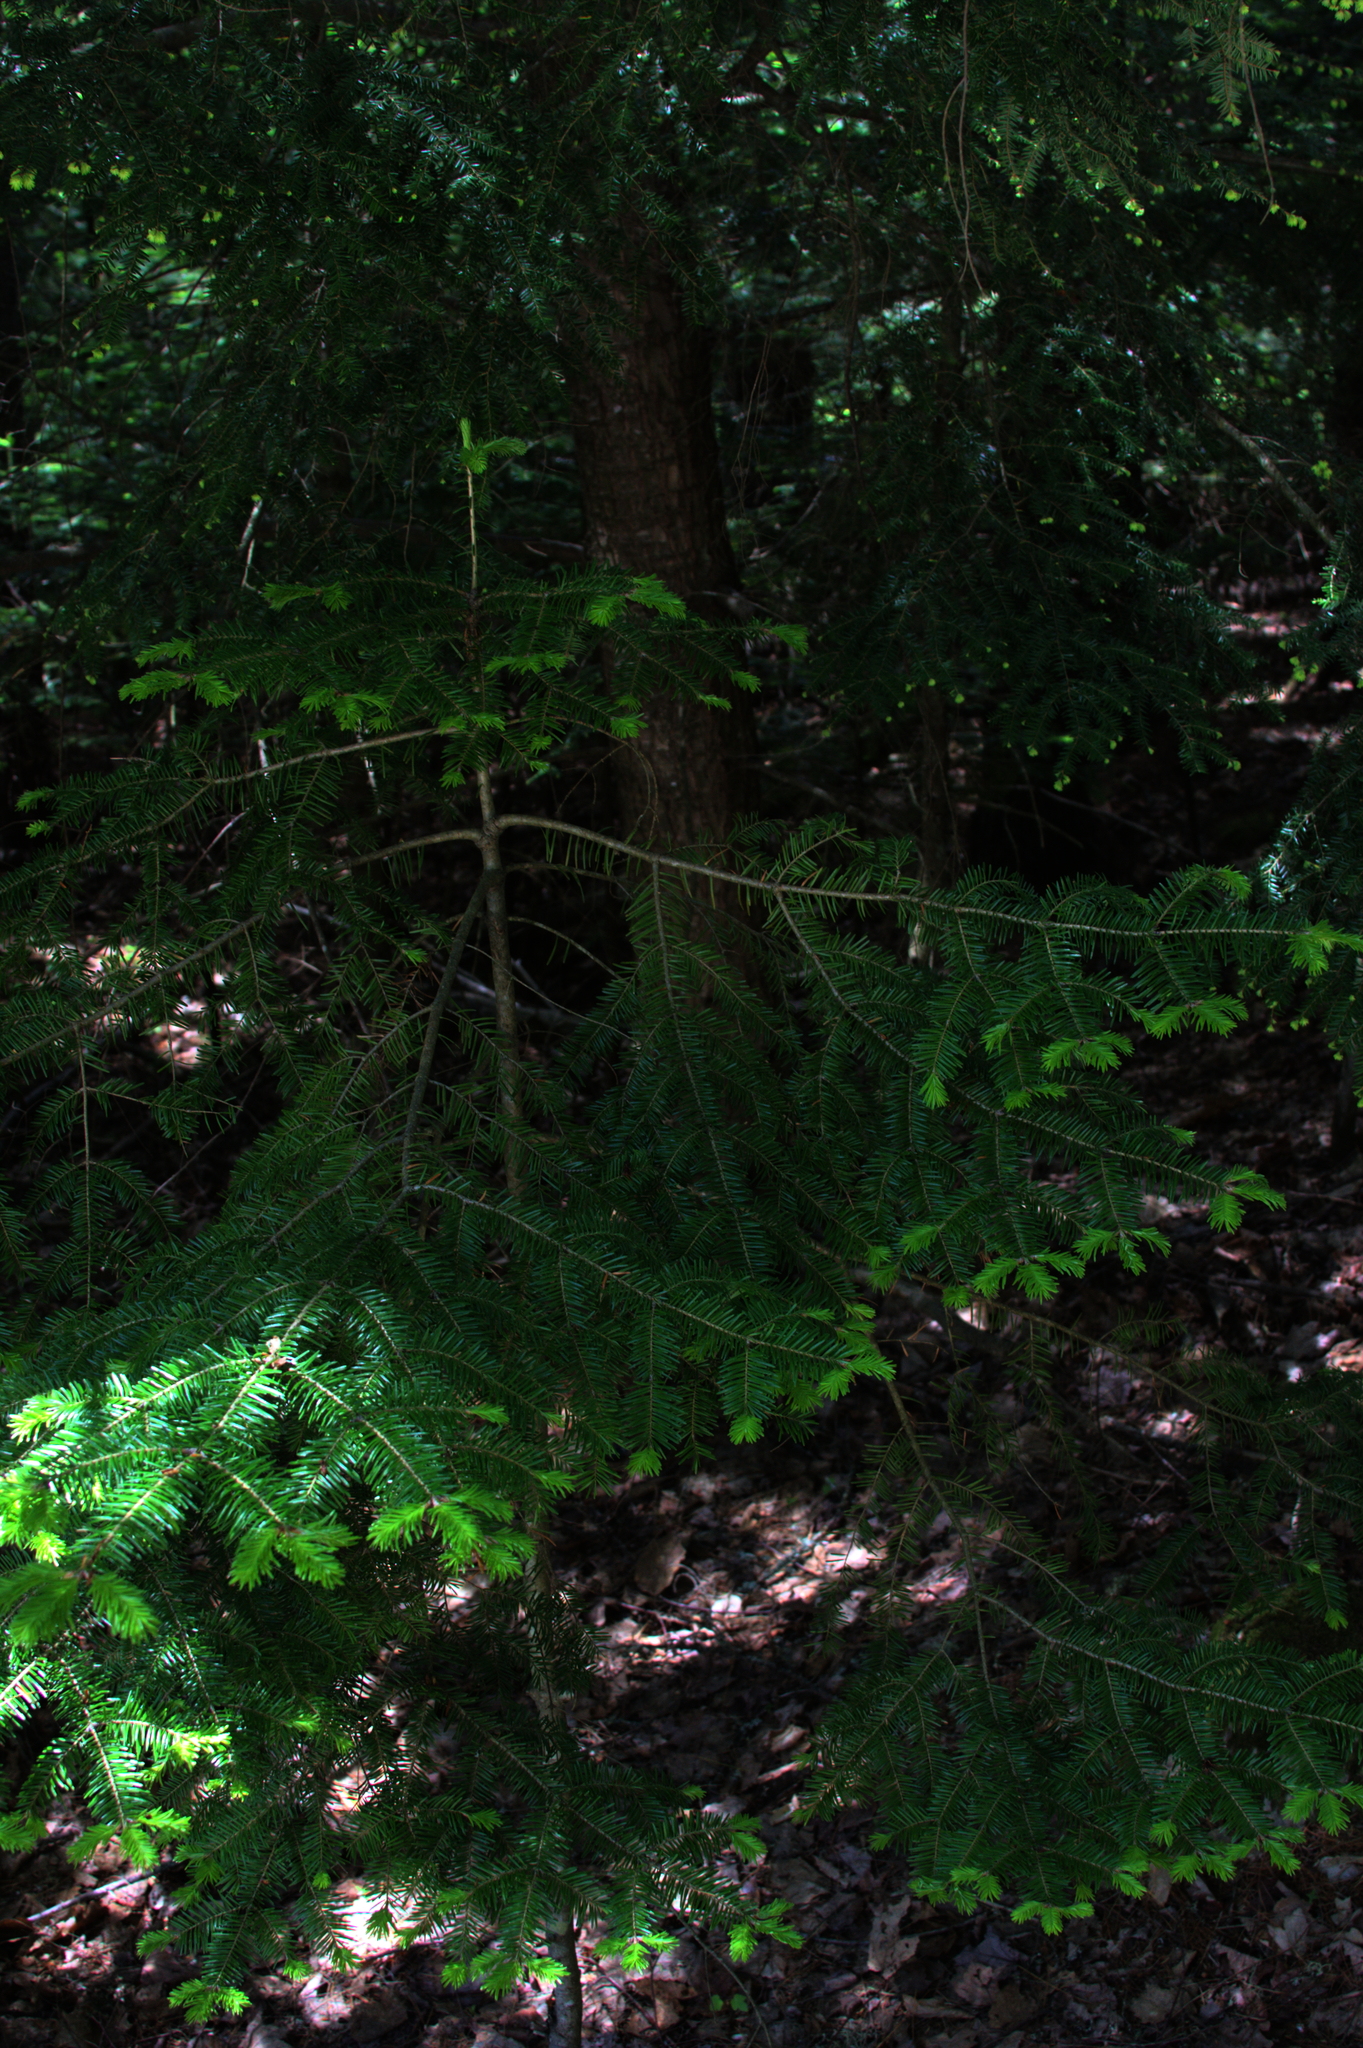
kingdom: Plantae
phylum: Tracheophyta
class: Pinopsida
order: Pinales
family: Pinaceae
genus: Abies
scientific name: Abies balsamea
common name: Balsam fir
